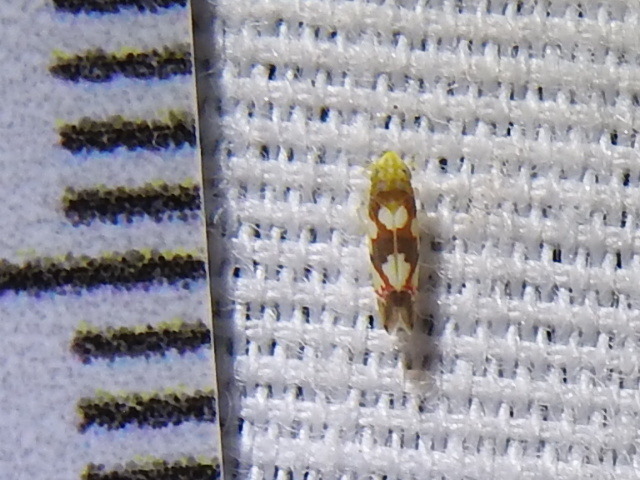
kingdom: Animalia
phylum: Arthropoda
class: Insecta
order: Hemiptera
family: Cicadellidae
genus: Erythroneura
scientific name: Erythroneura elegans
